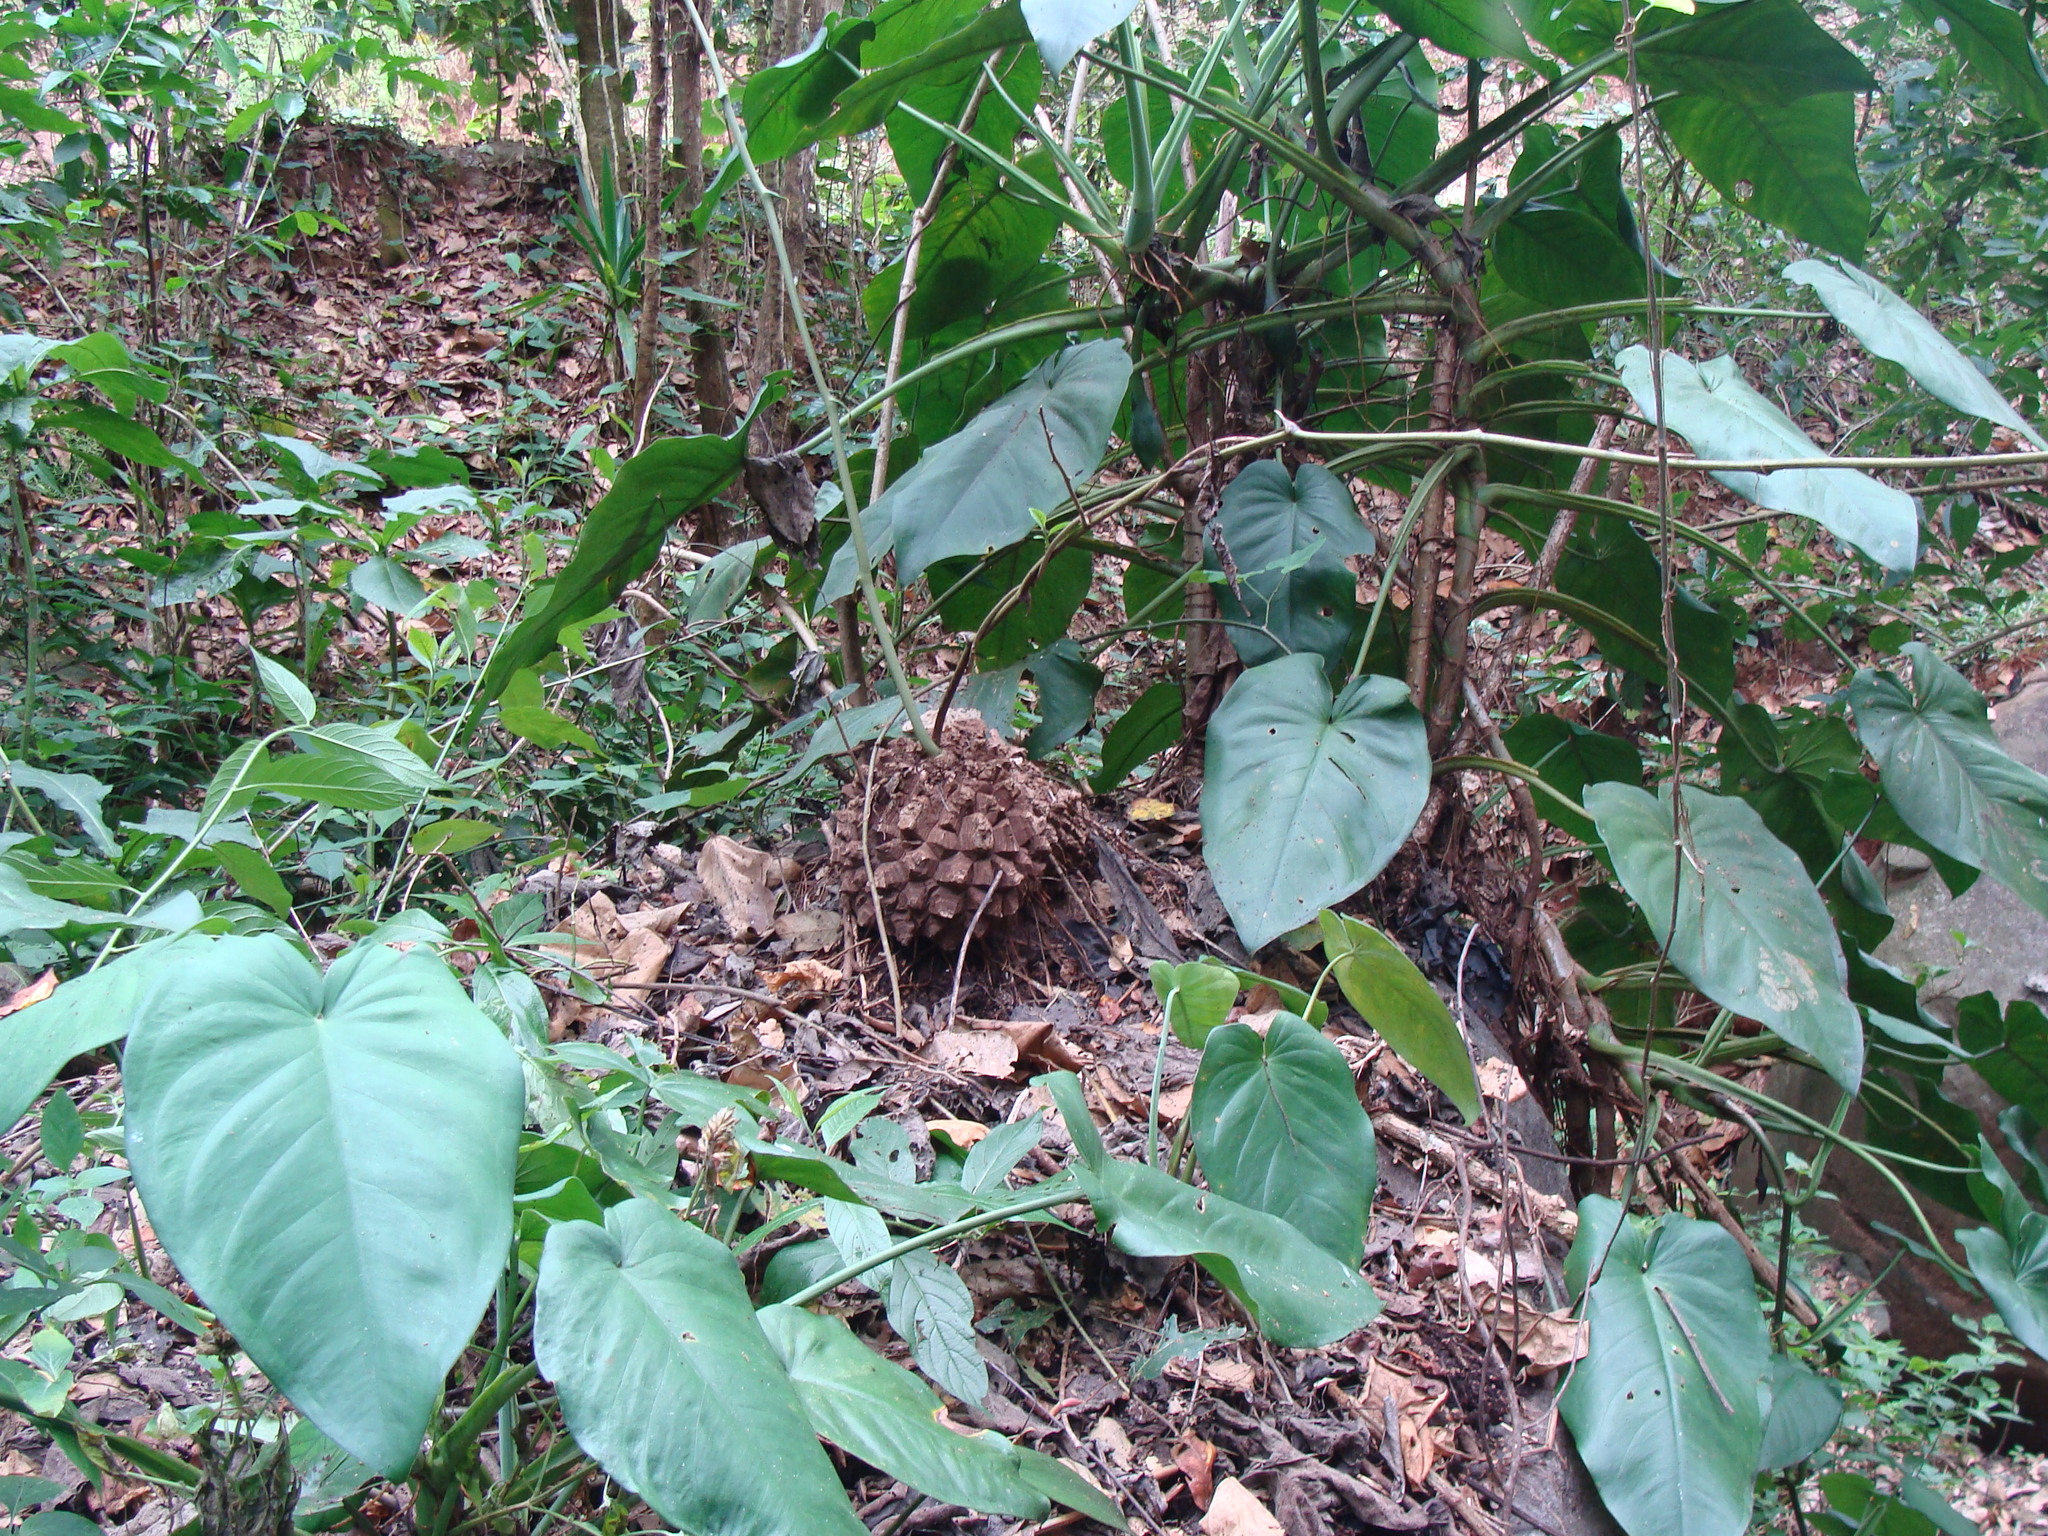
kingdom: Plantae
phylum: Tracheophyta
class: Liliopsida
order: Dioscoreales
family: Dioscoreaceae
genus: Dioscorea
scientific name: Dioscorea mexicana
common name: Mexican yam
